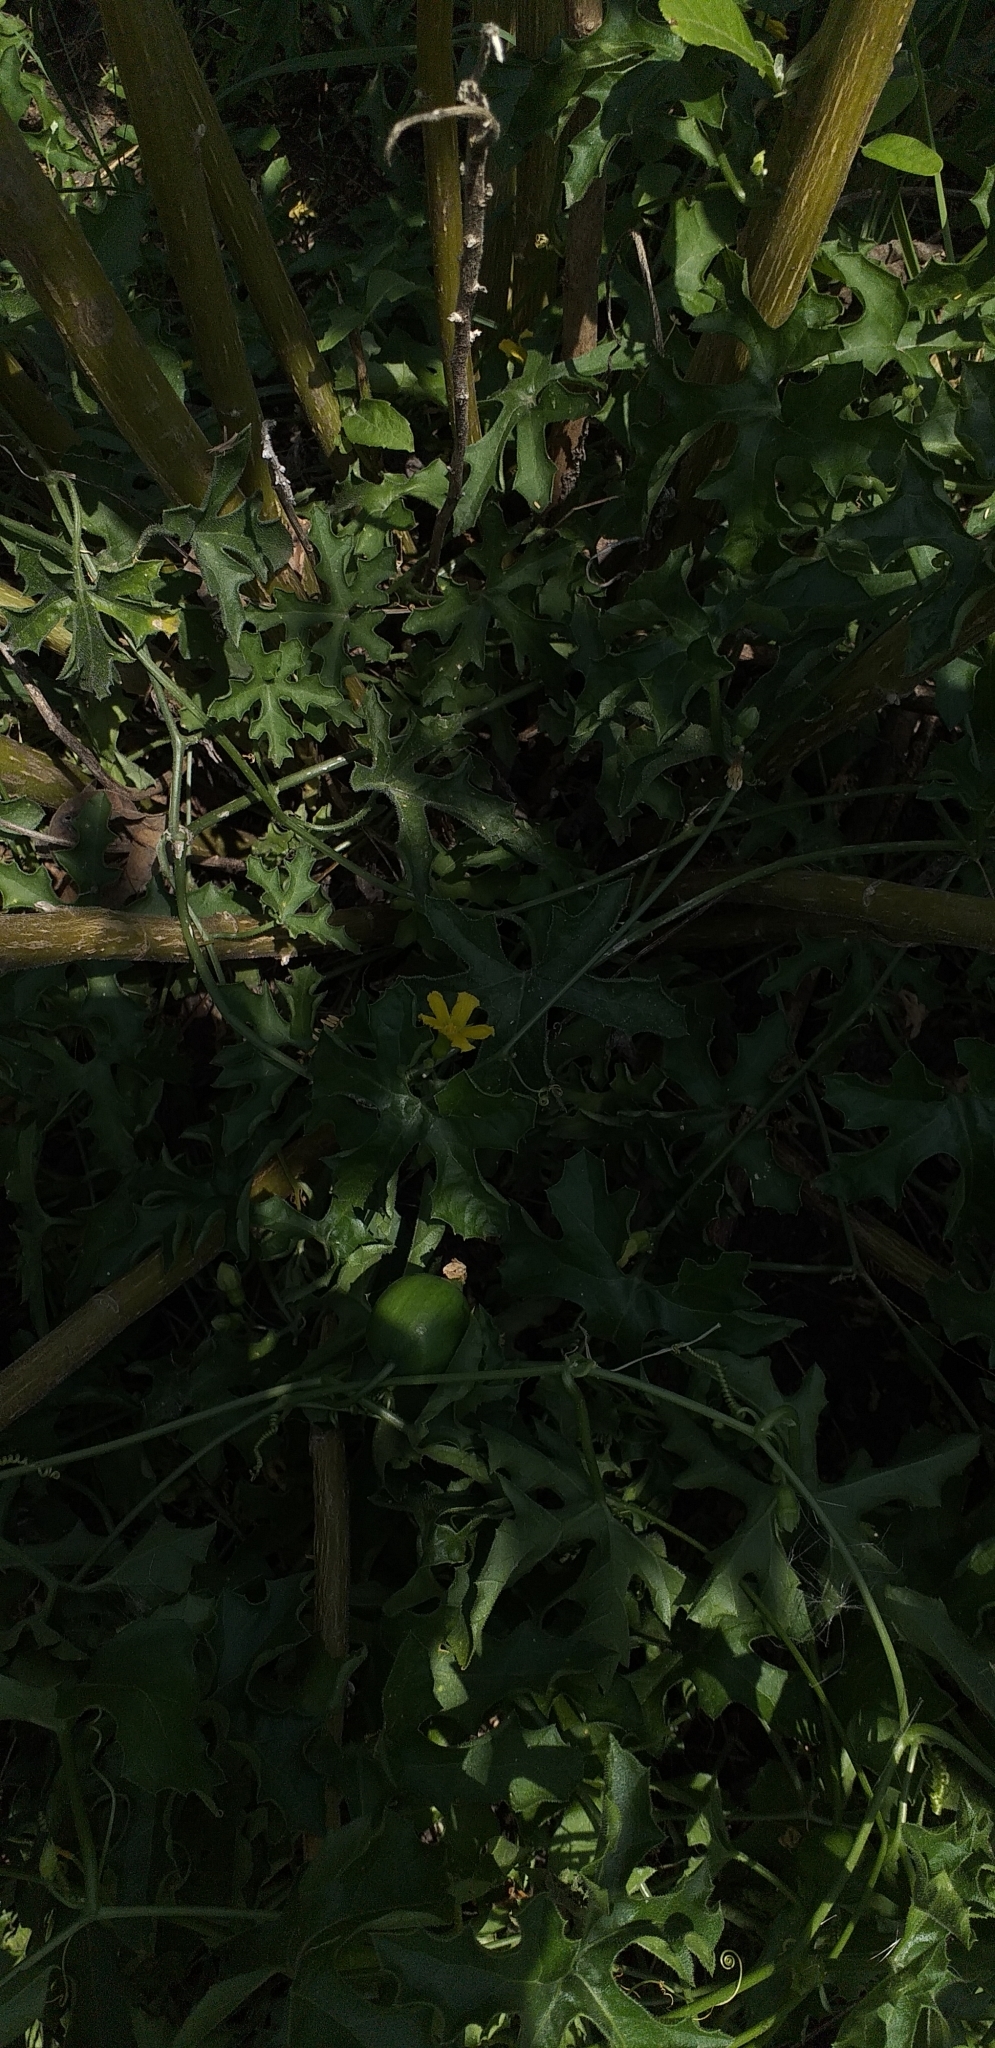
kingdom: Plantae
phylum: Tracheophyta
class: Magnoliopsida
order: Cucurbitales
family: Cucurbitaceae
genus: Cucurbitella
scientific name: Cucurbitella asperata
